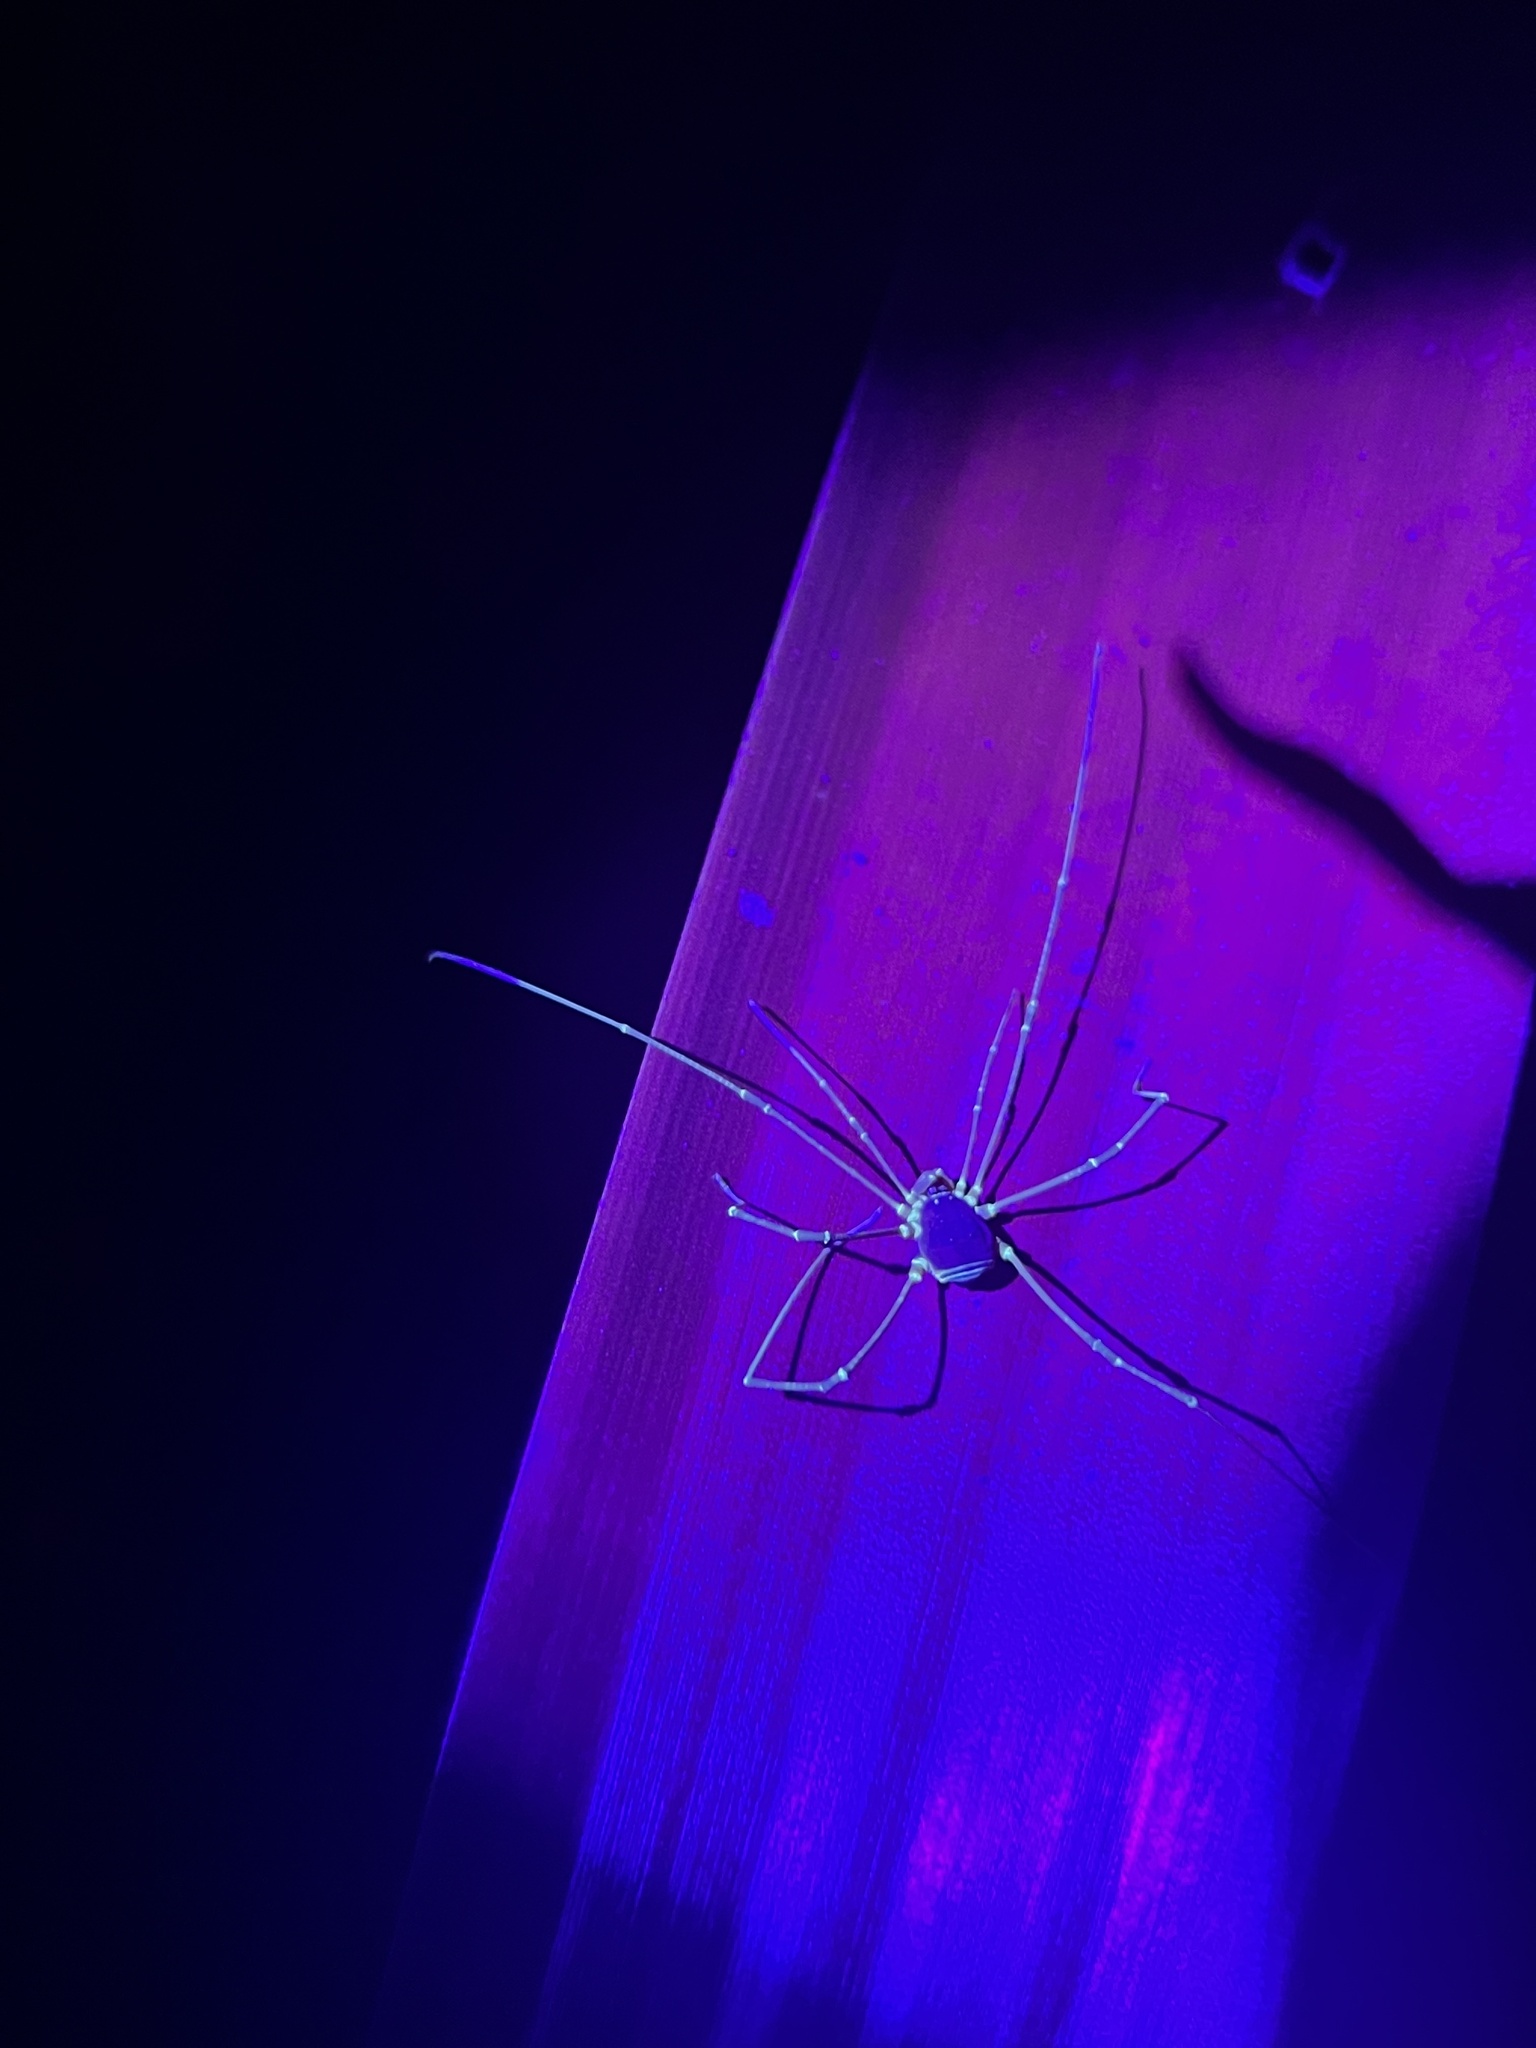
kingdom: Animalia
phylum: Arthropoda
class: Arachnida
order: Opiliones
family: Cosmetidae
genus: Poecilaemula
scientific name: Poecilaemula
